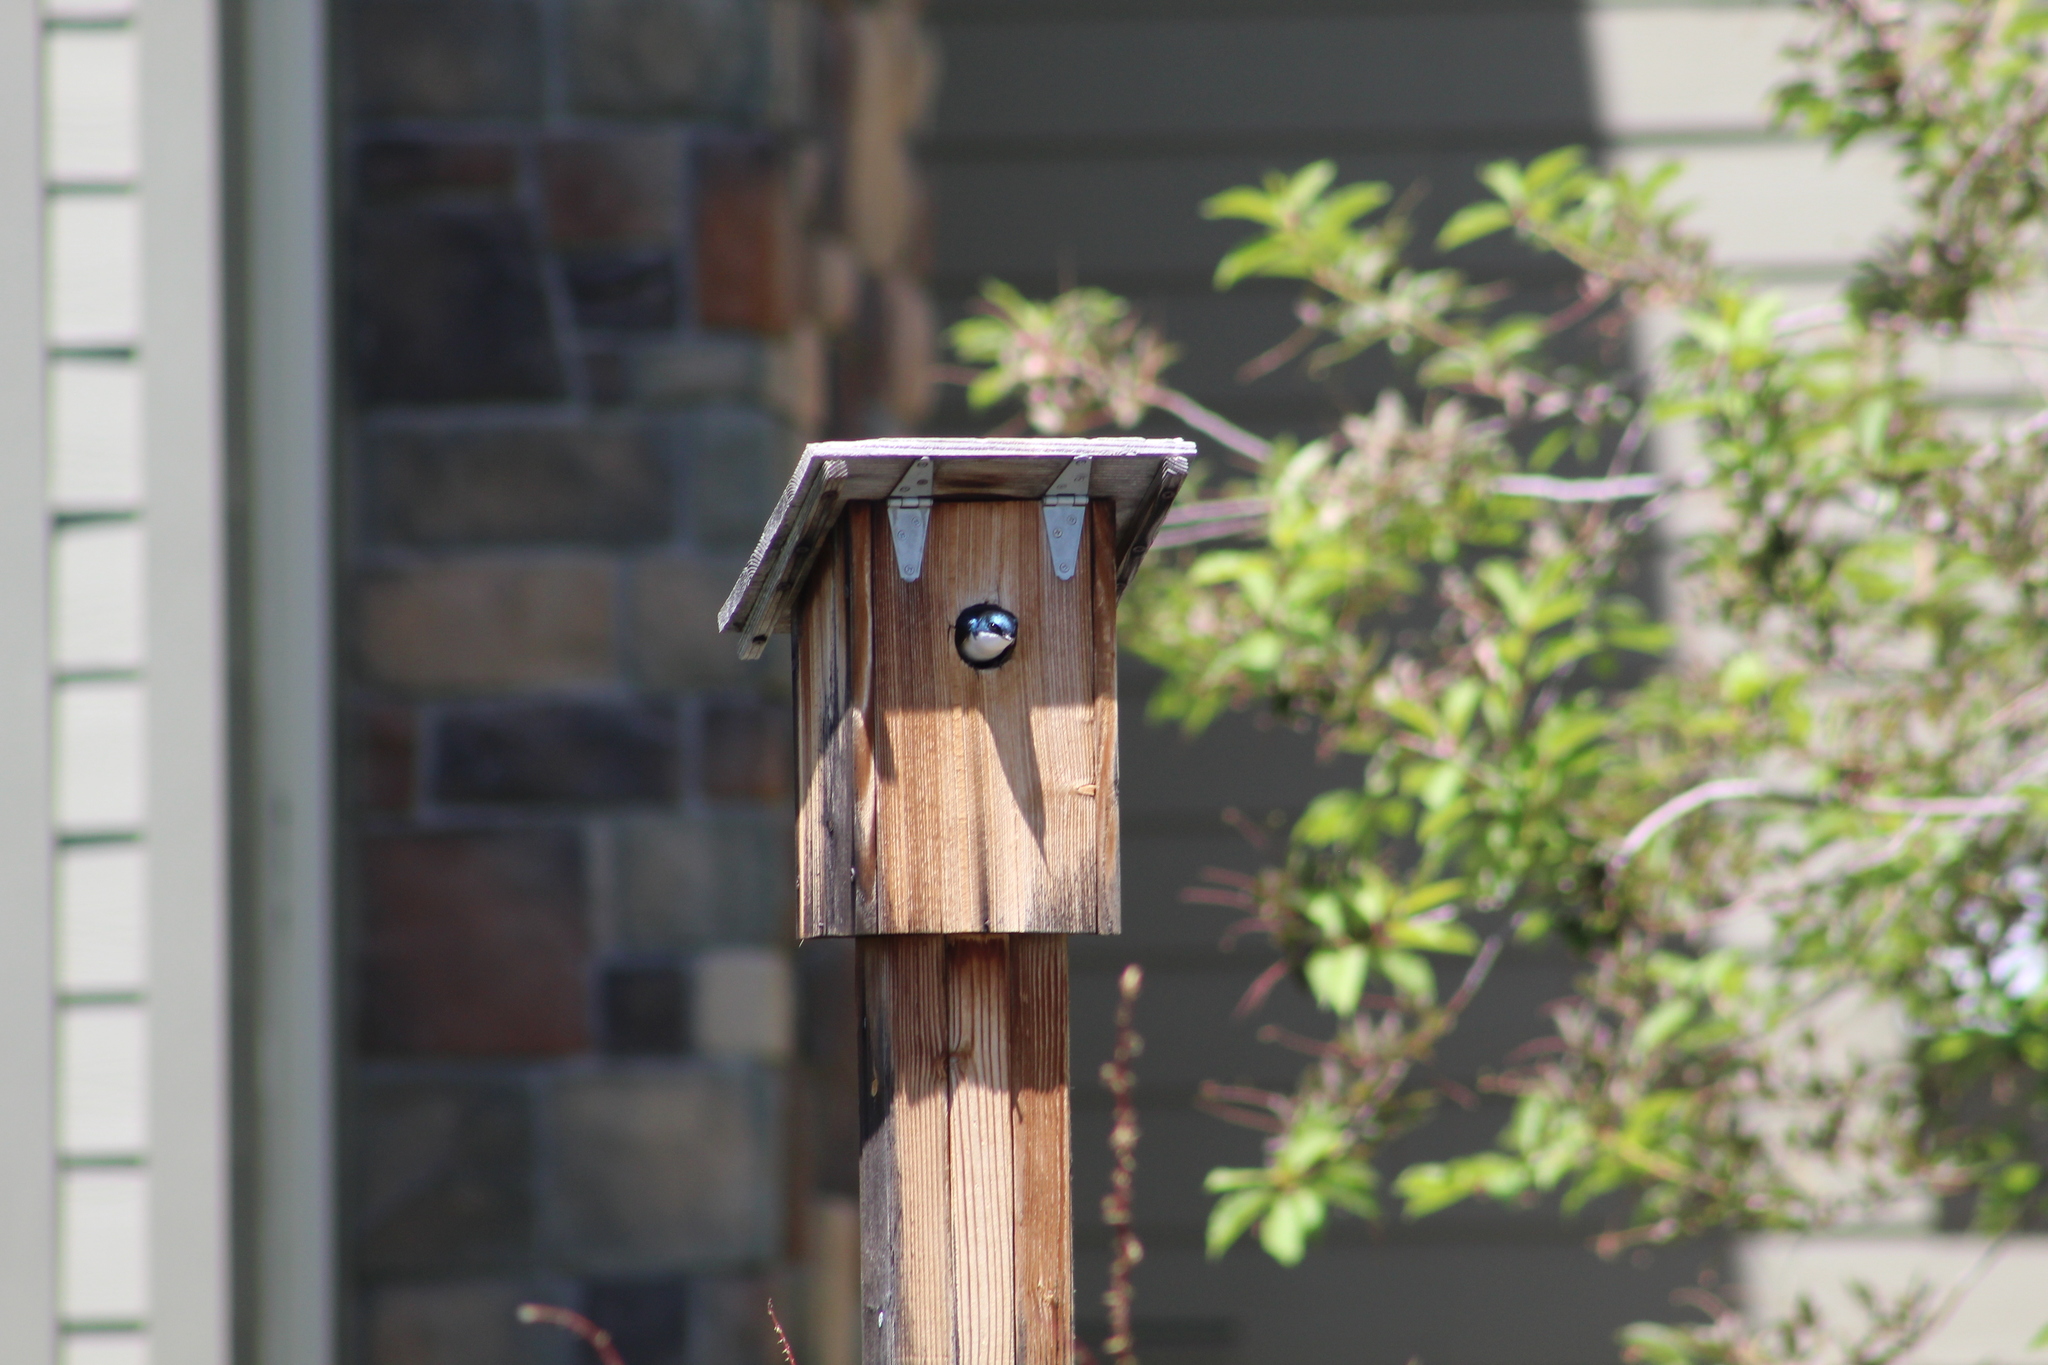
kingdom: Animalia
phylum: Chordata
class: Aves
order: Passeriformes
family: Hirundinidae
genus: Tachycineta
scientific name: Tachycineta bicolor
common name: Tree swallow
